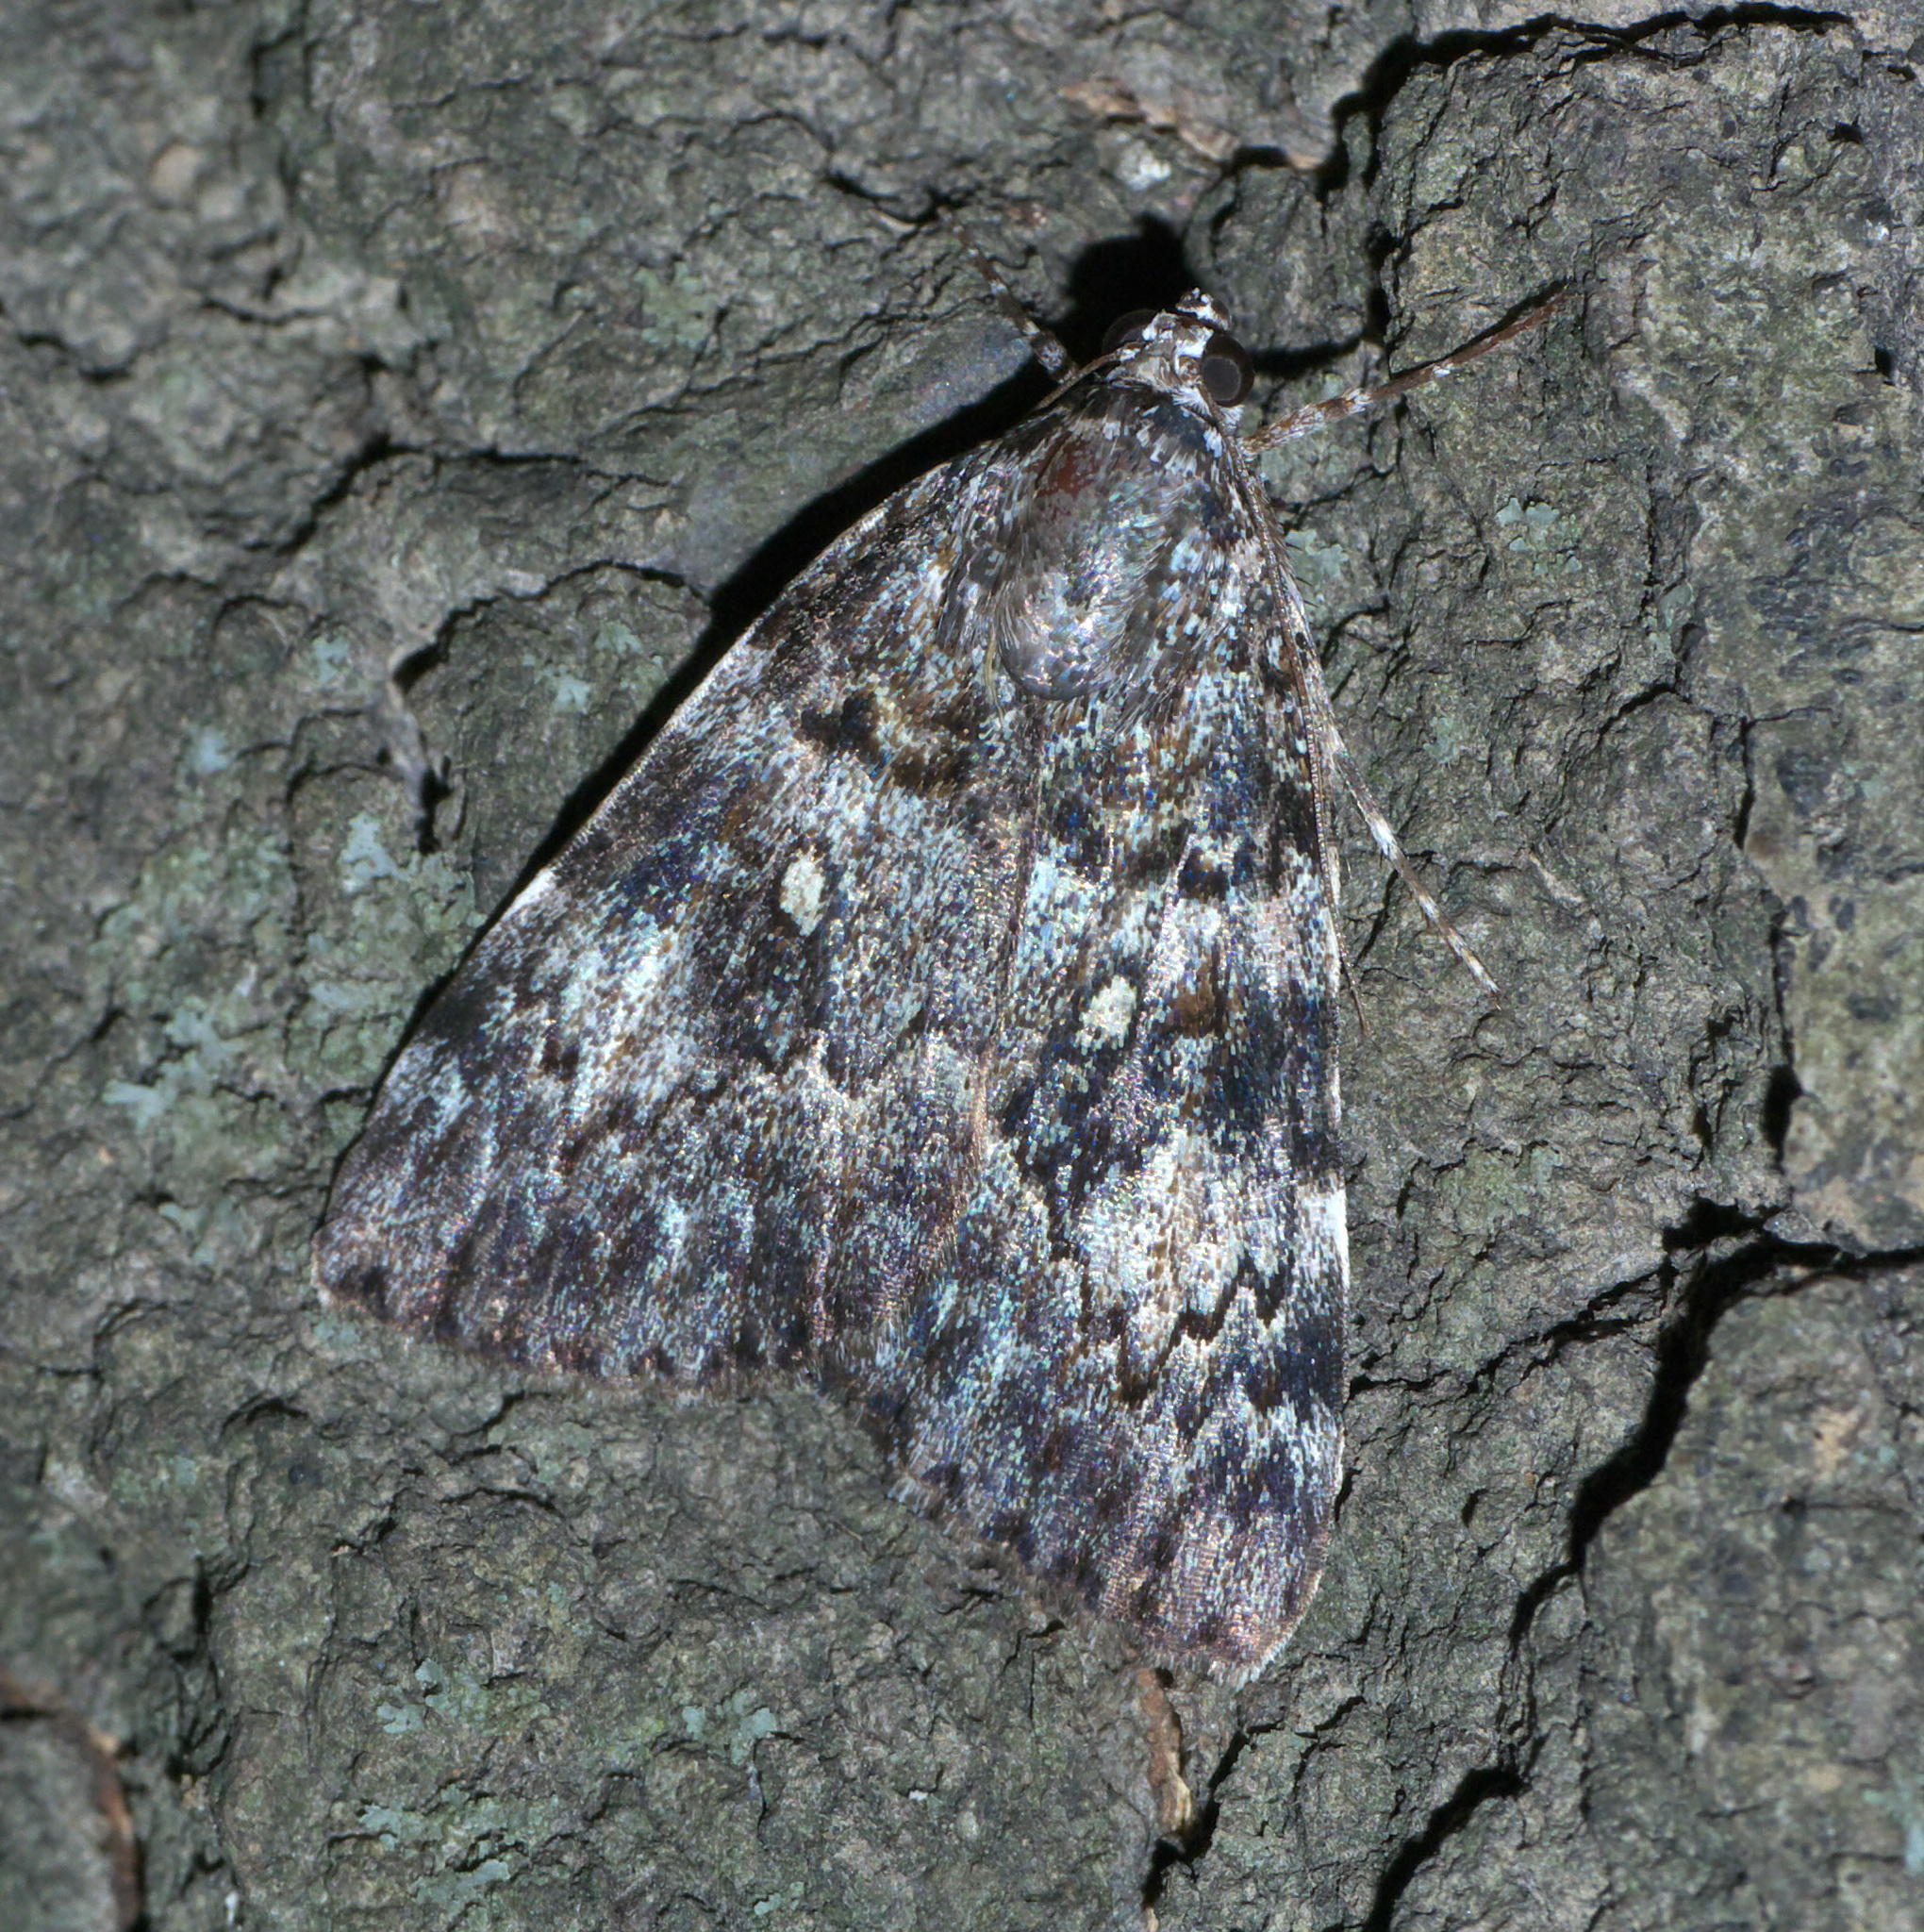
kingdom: Animalia
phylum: Arthropoda
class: Insecta
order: Lepidoptera
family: Erebidae
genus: Catocala
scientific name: Catocala lineella
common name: Little lined underwing
